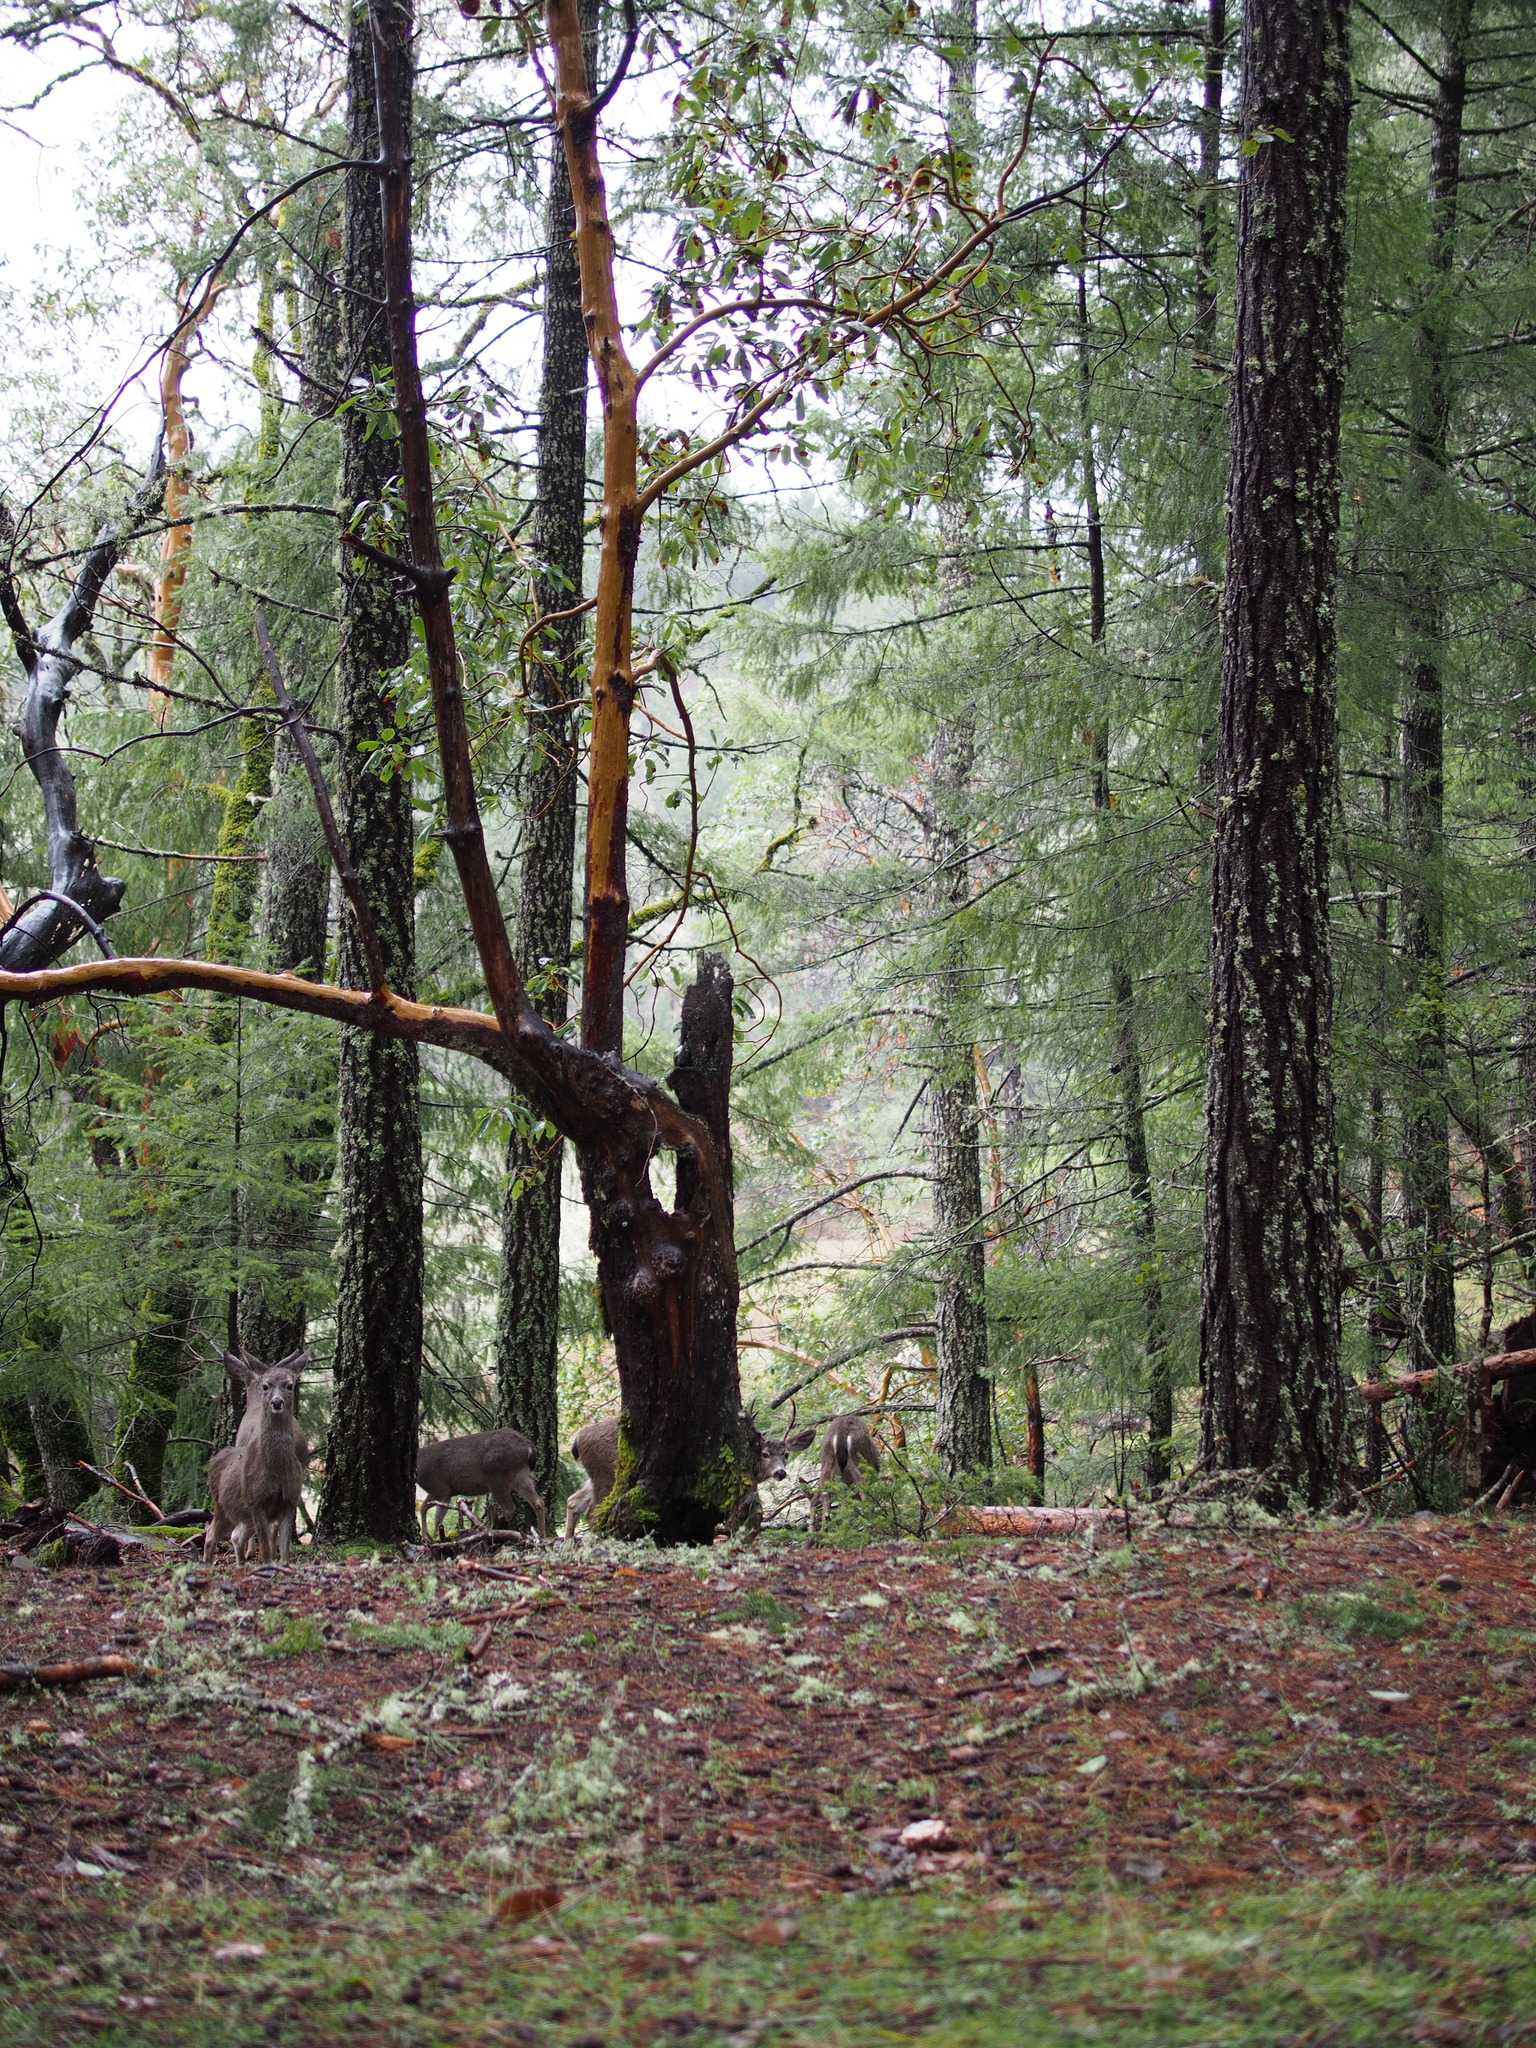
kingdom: Animalia
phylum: Chordata
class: Mammalia
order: Artiodactyla
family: Cervidae
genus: Odocoileus
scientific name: Odocoileus hemionus
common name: Mule deer
